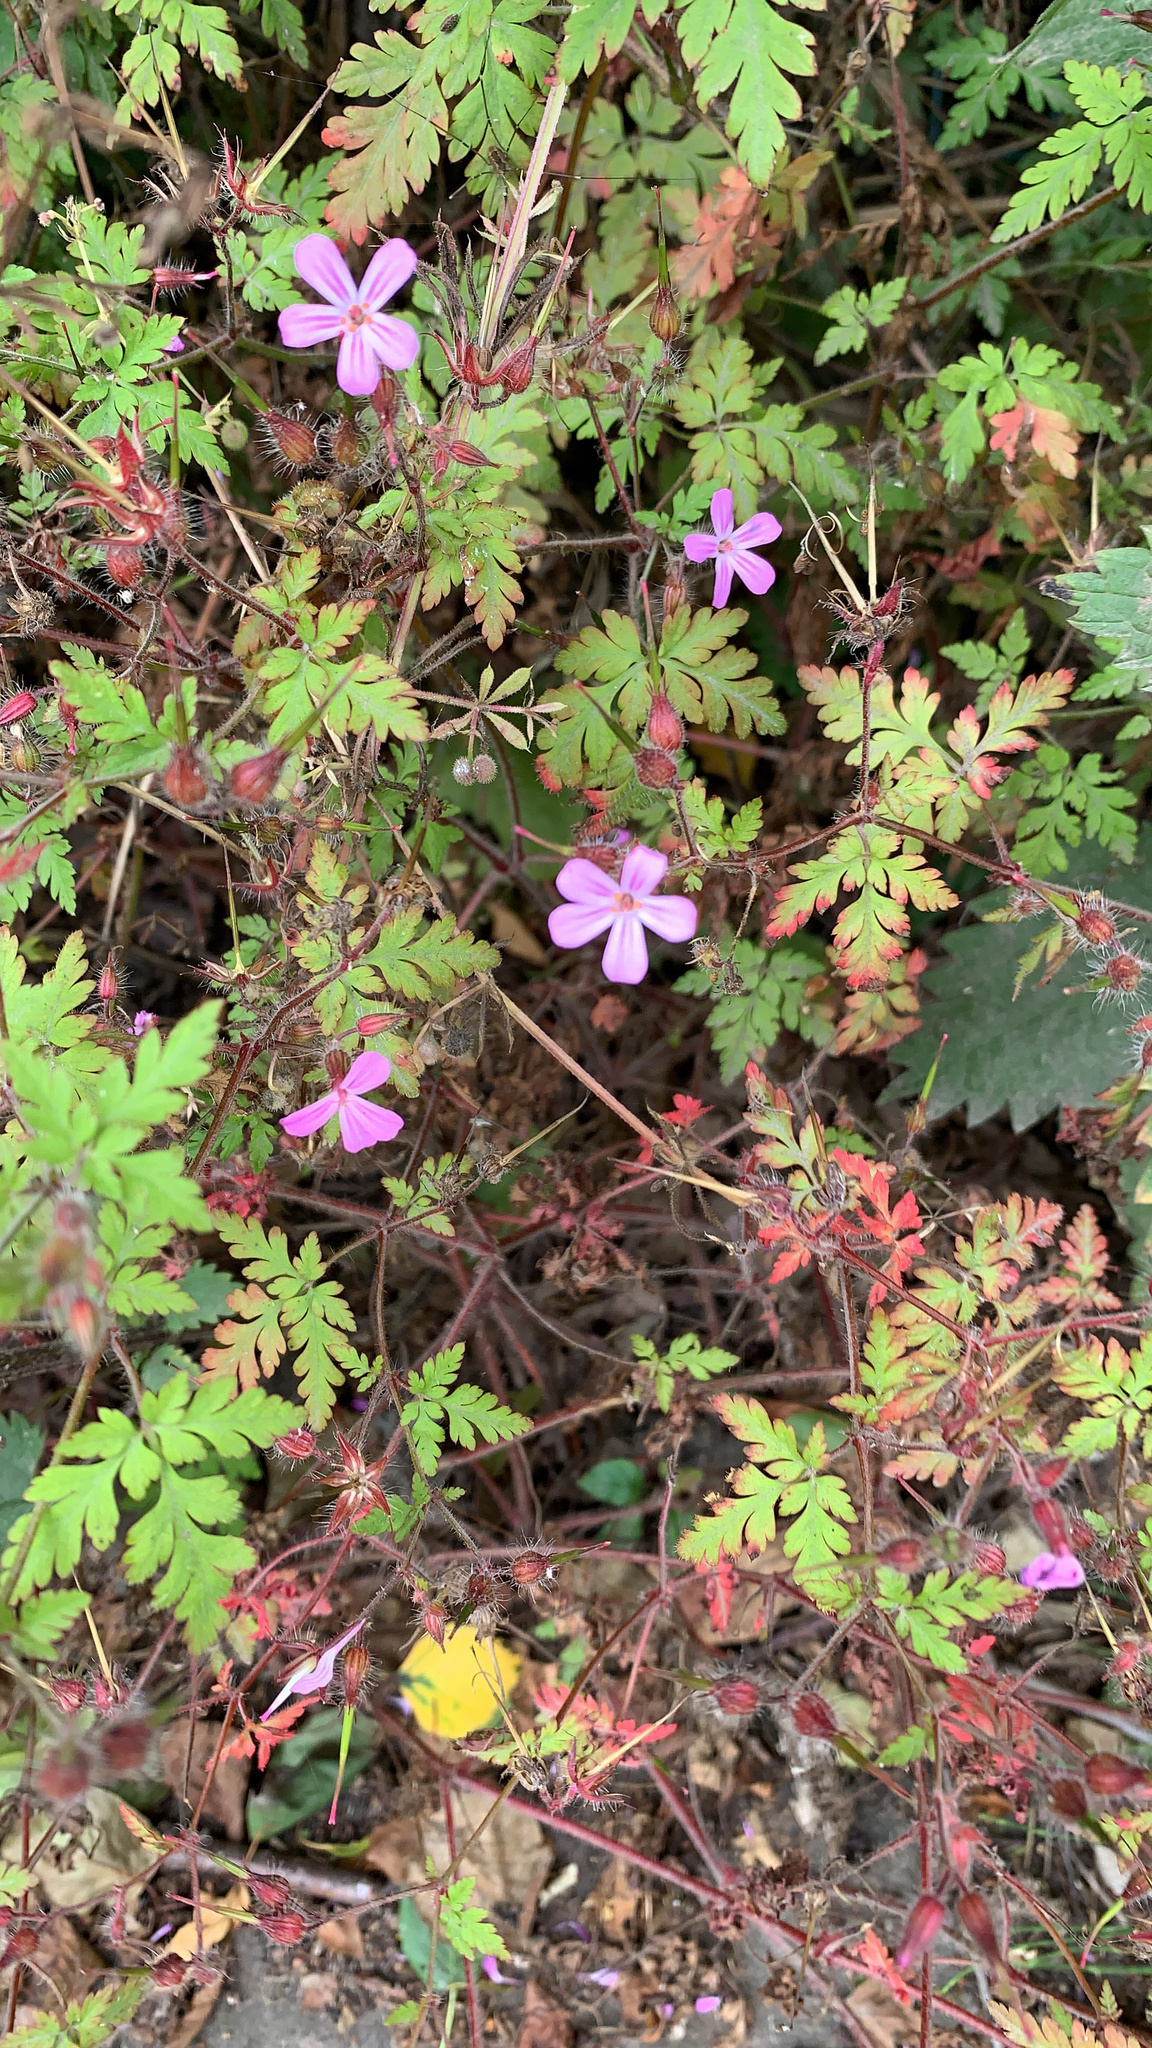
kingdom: Plantae
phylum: Tracheophyta
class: Magnoliopsida
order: Geraniales
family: Geraniaceae
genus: Geranium
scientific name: Geranium robertianum
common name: Herb-robert
